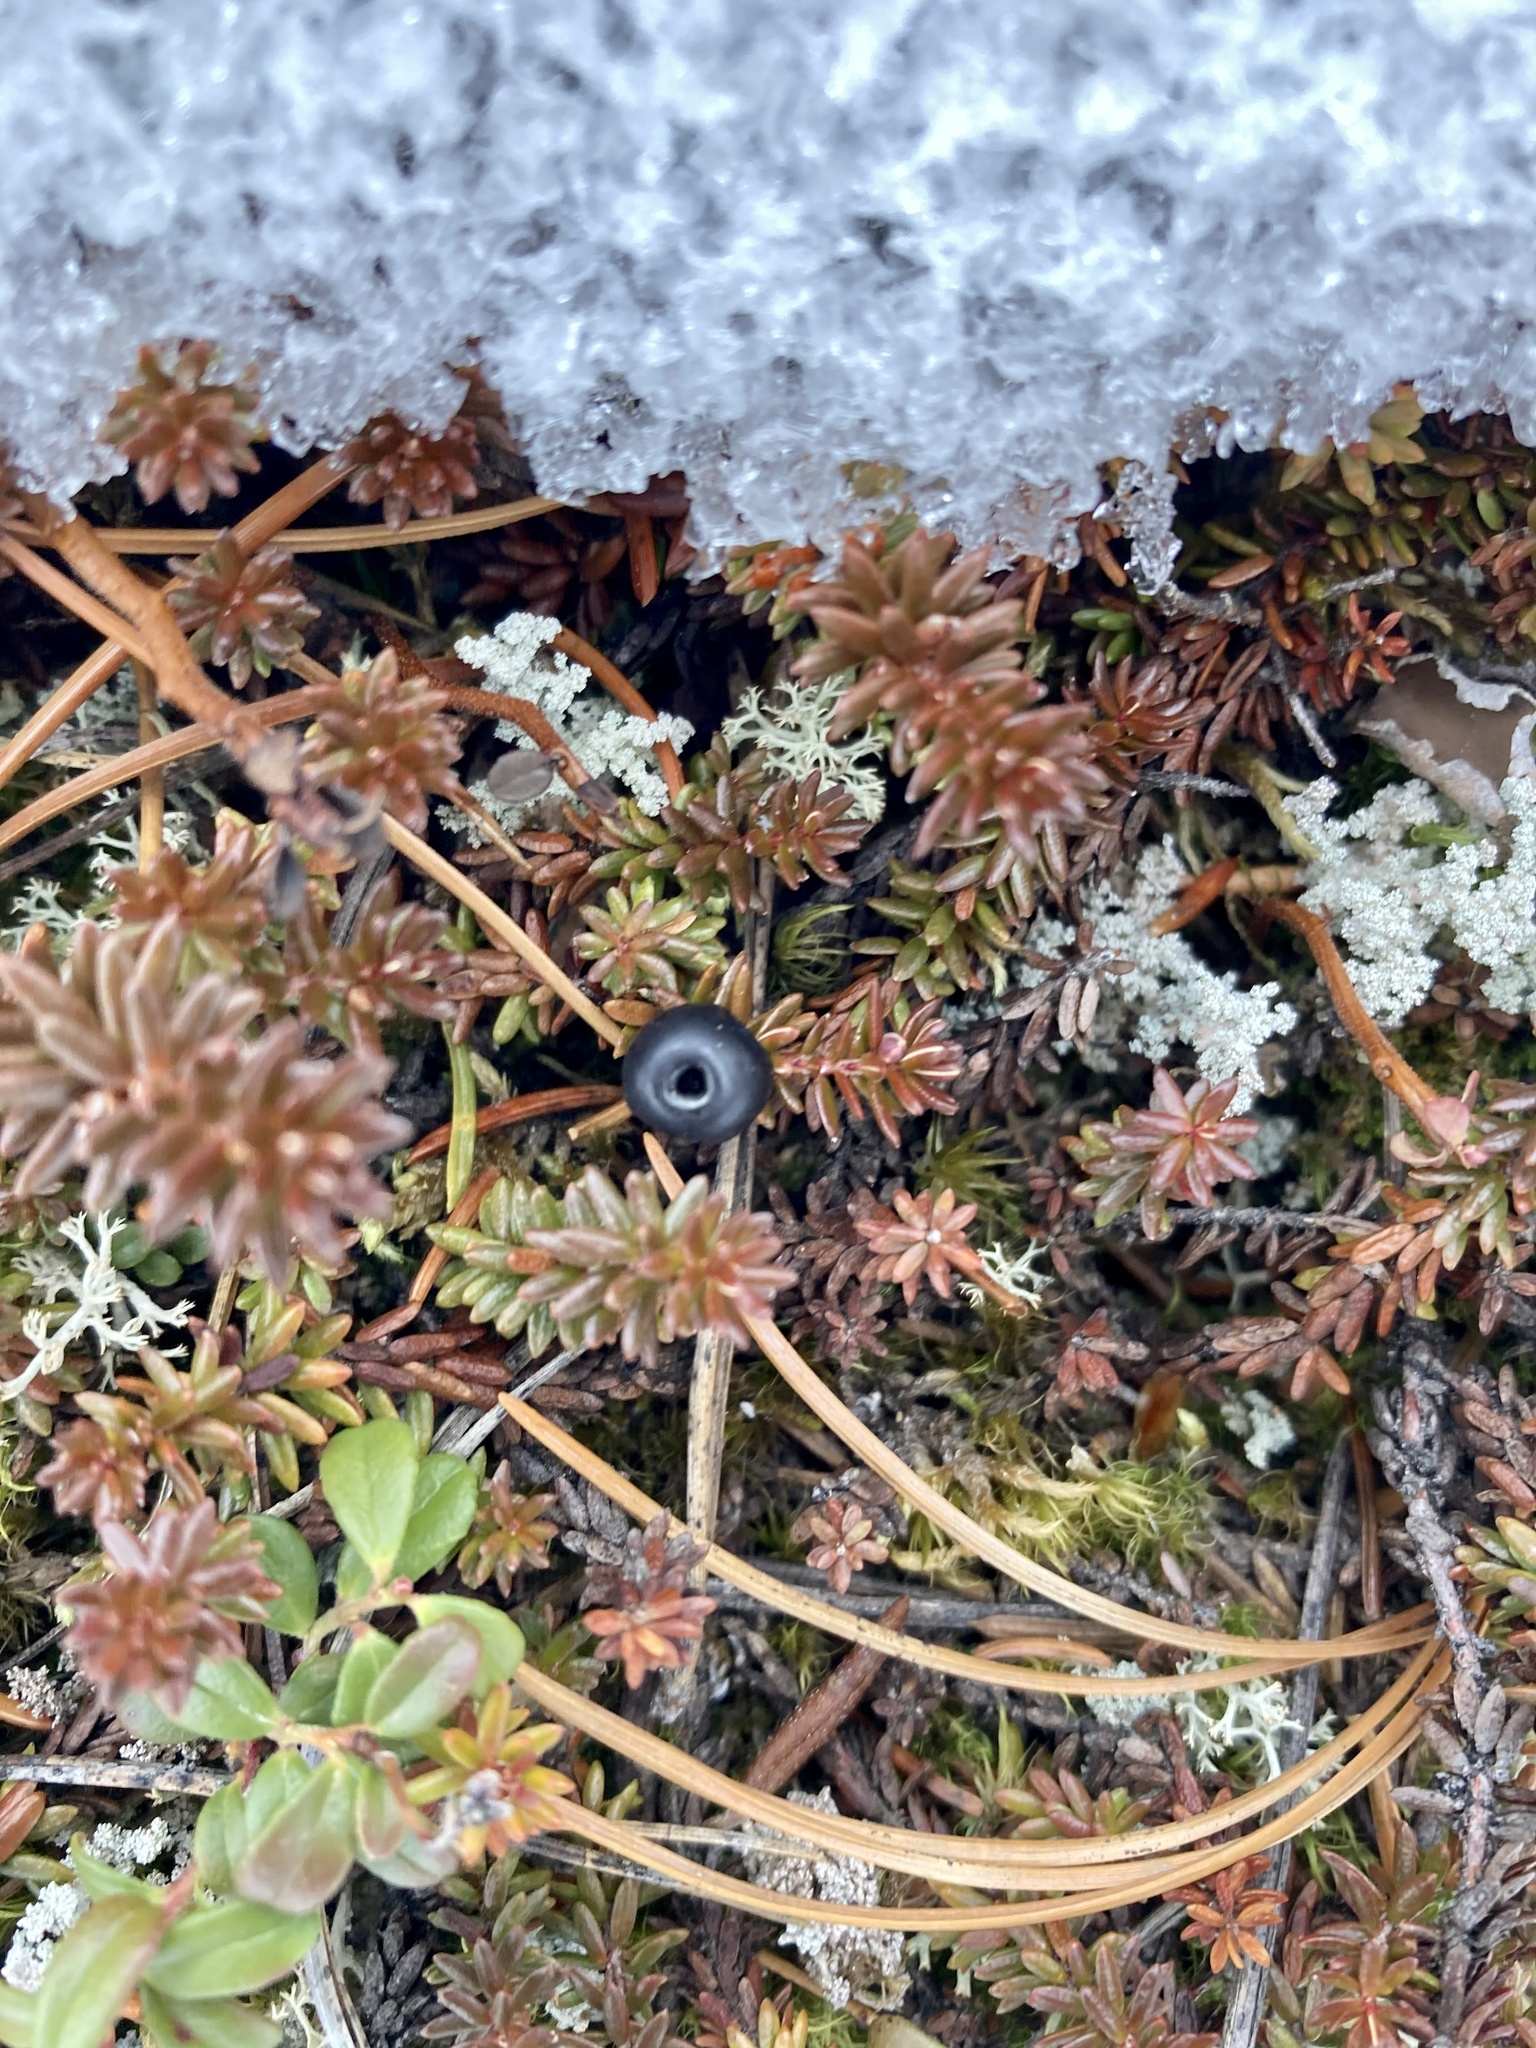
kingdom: Plantae
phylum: Tracheophyta
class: Magnoliopsida
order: Ericales
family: Ericaceae
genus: Empetrum
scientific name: Empetrum nigrum
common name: Black crowberry
